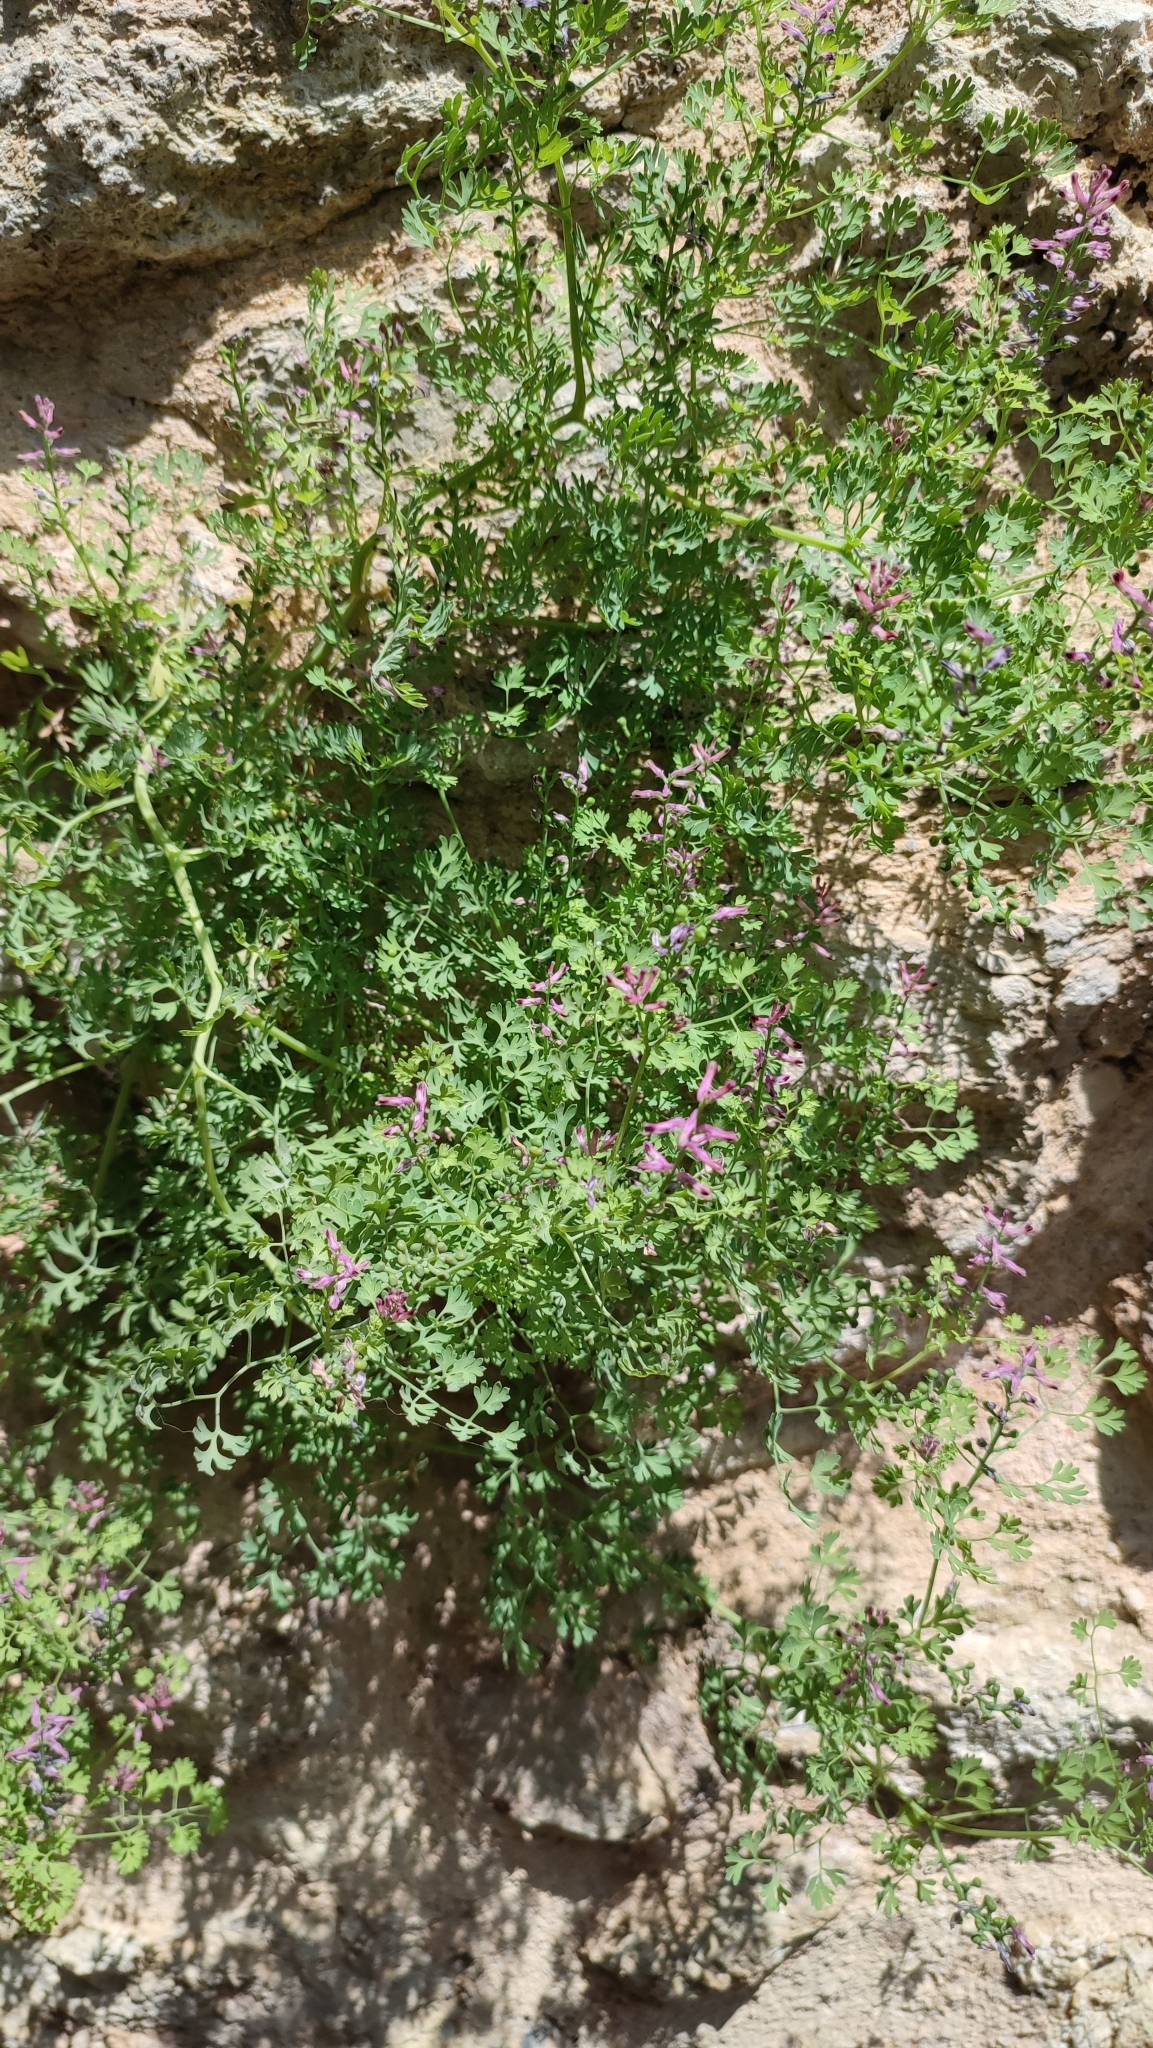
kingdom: Plantae
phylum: Tracheophyta
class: Magnoliopsida
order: Ranunculales
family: Papaveraceae
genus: Fumaria
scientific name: Fumaria officinalis
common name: Common fumitory
